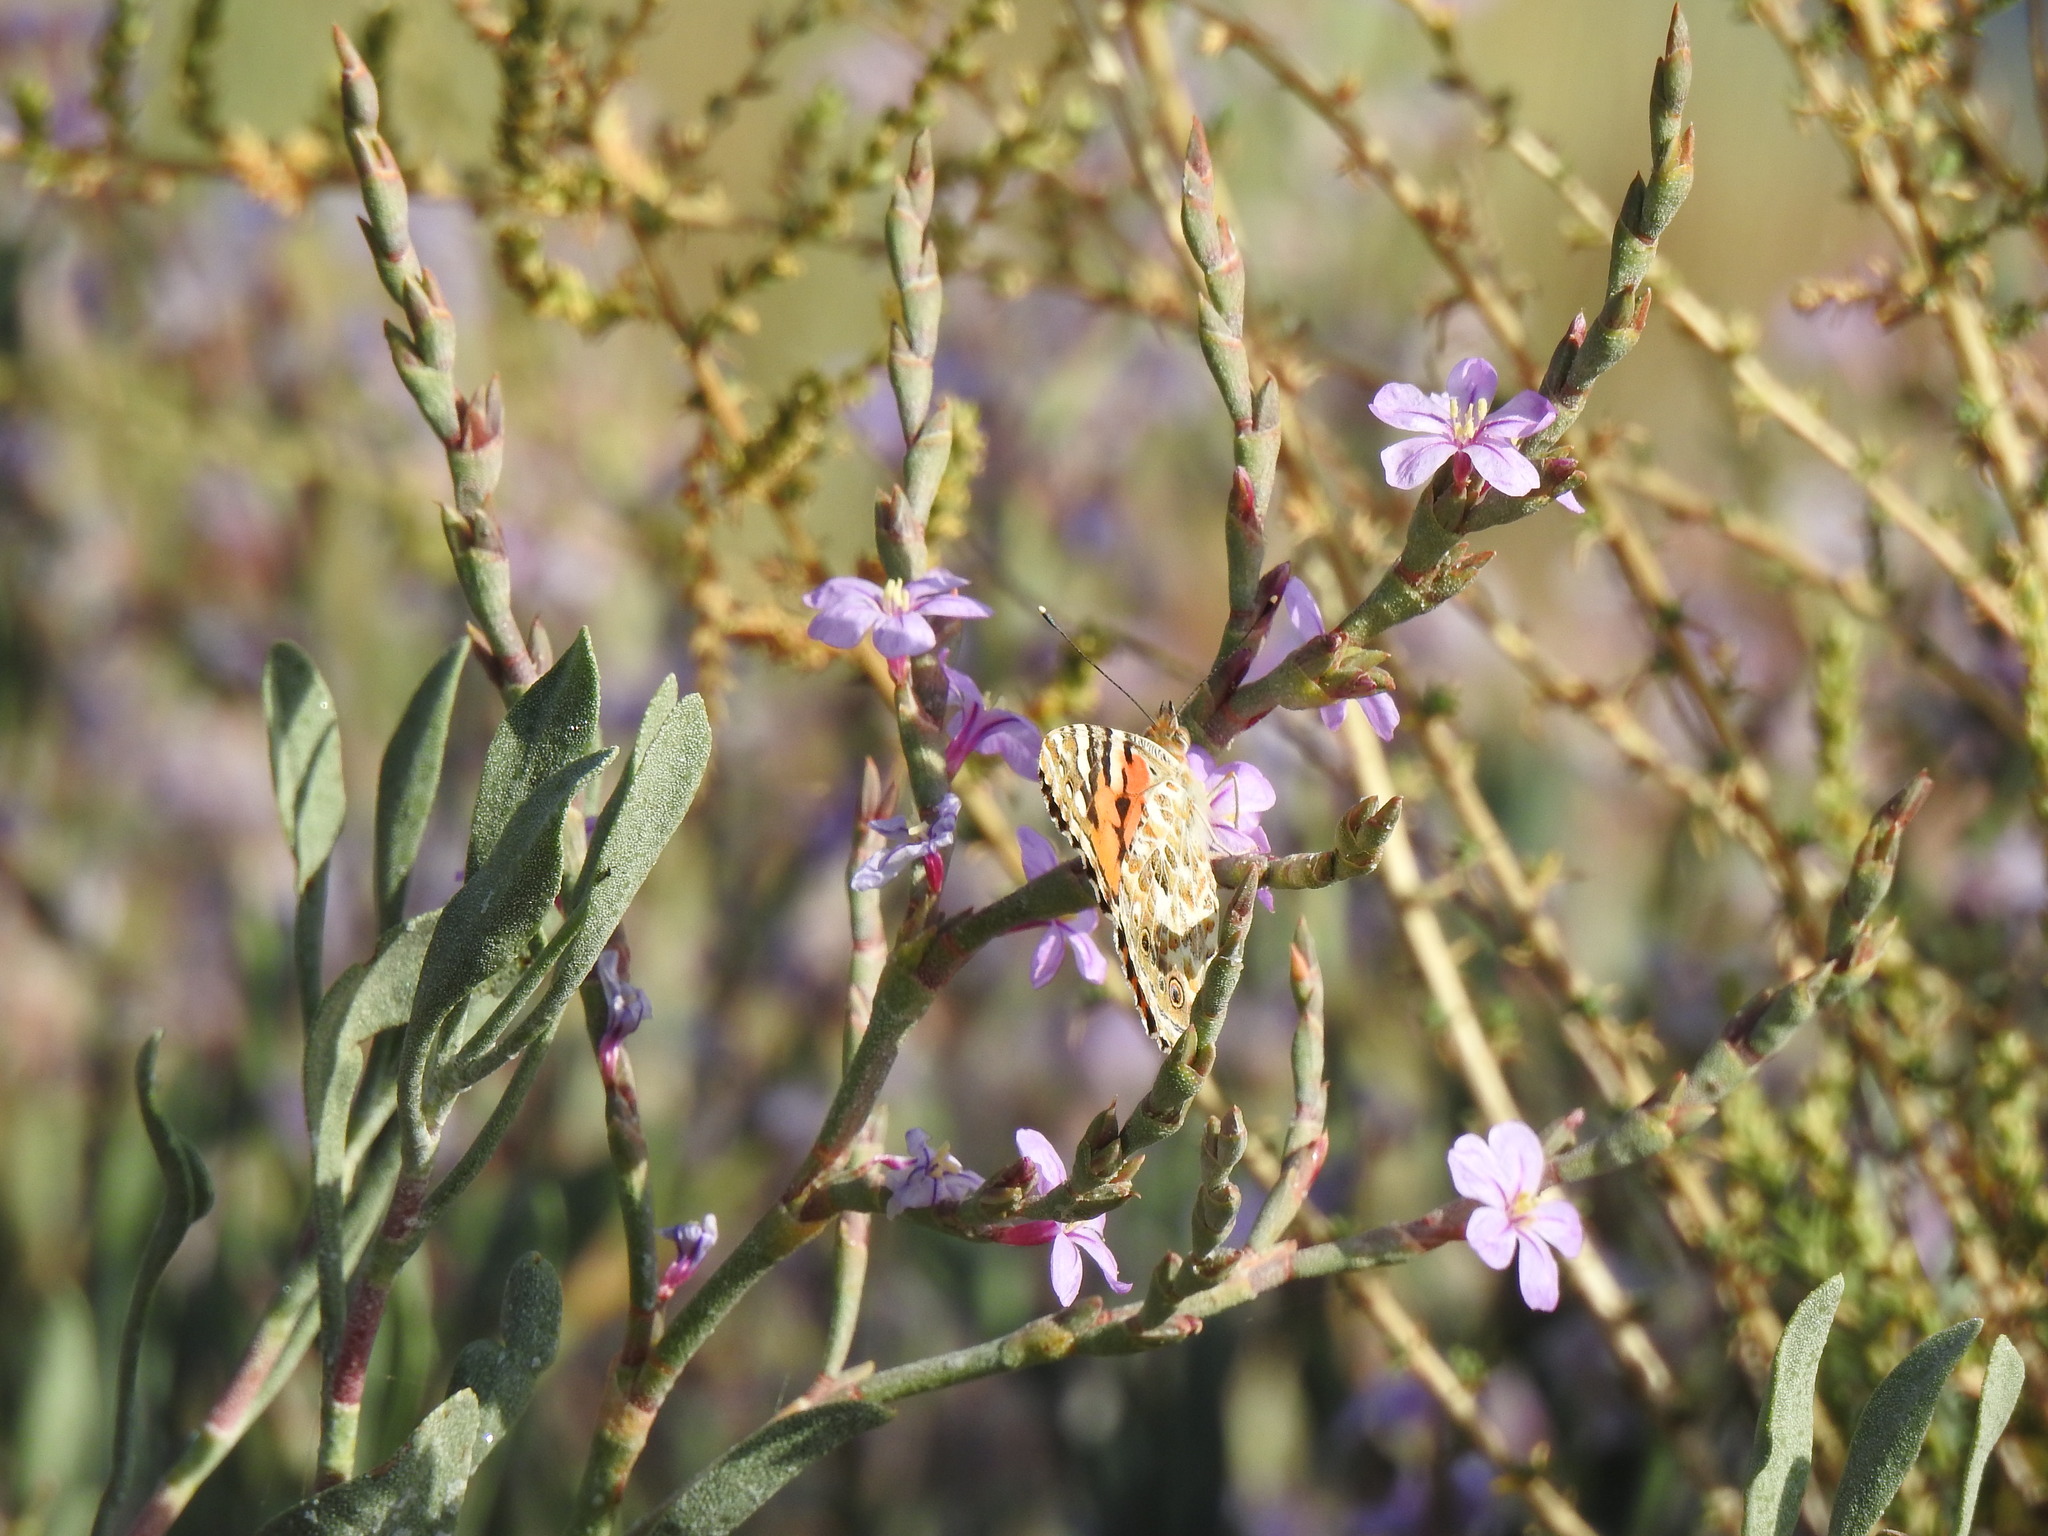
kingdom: Plantae
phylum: Tracheophyta
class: Magnoliopsida
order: Caryophyllales
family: Plumbaginaceae
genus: Limoniastrum
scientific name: Limoniastrum monopetalum
